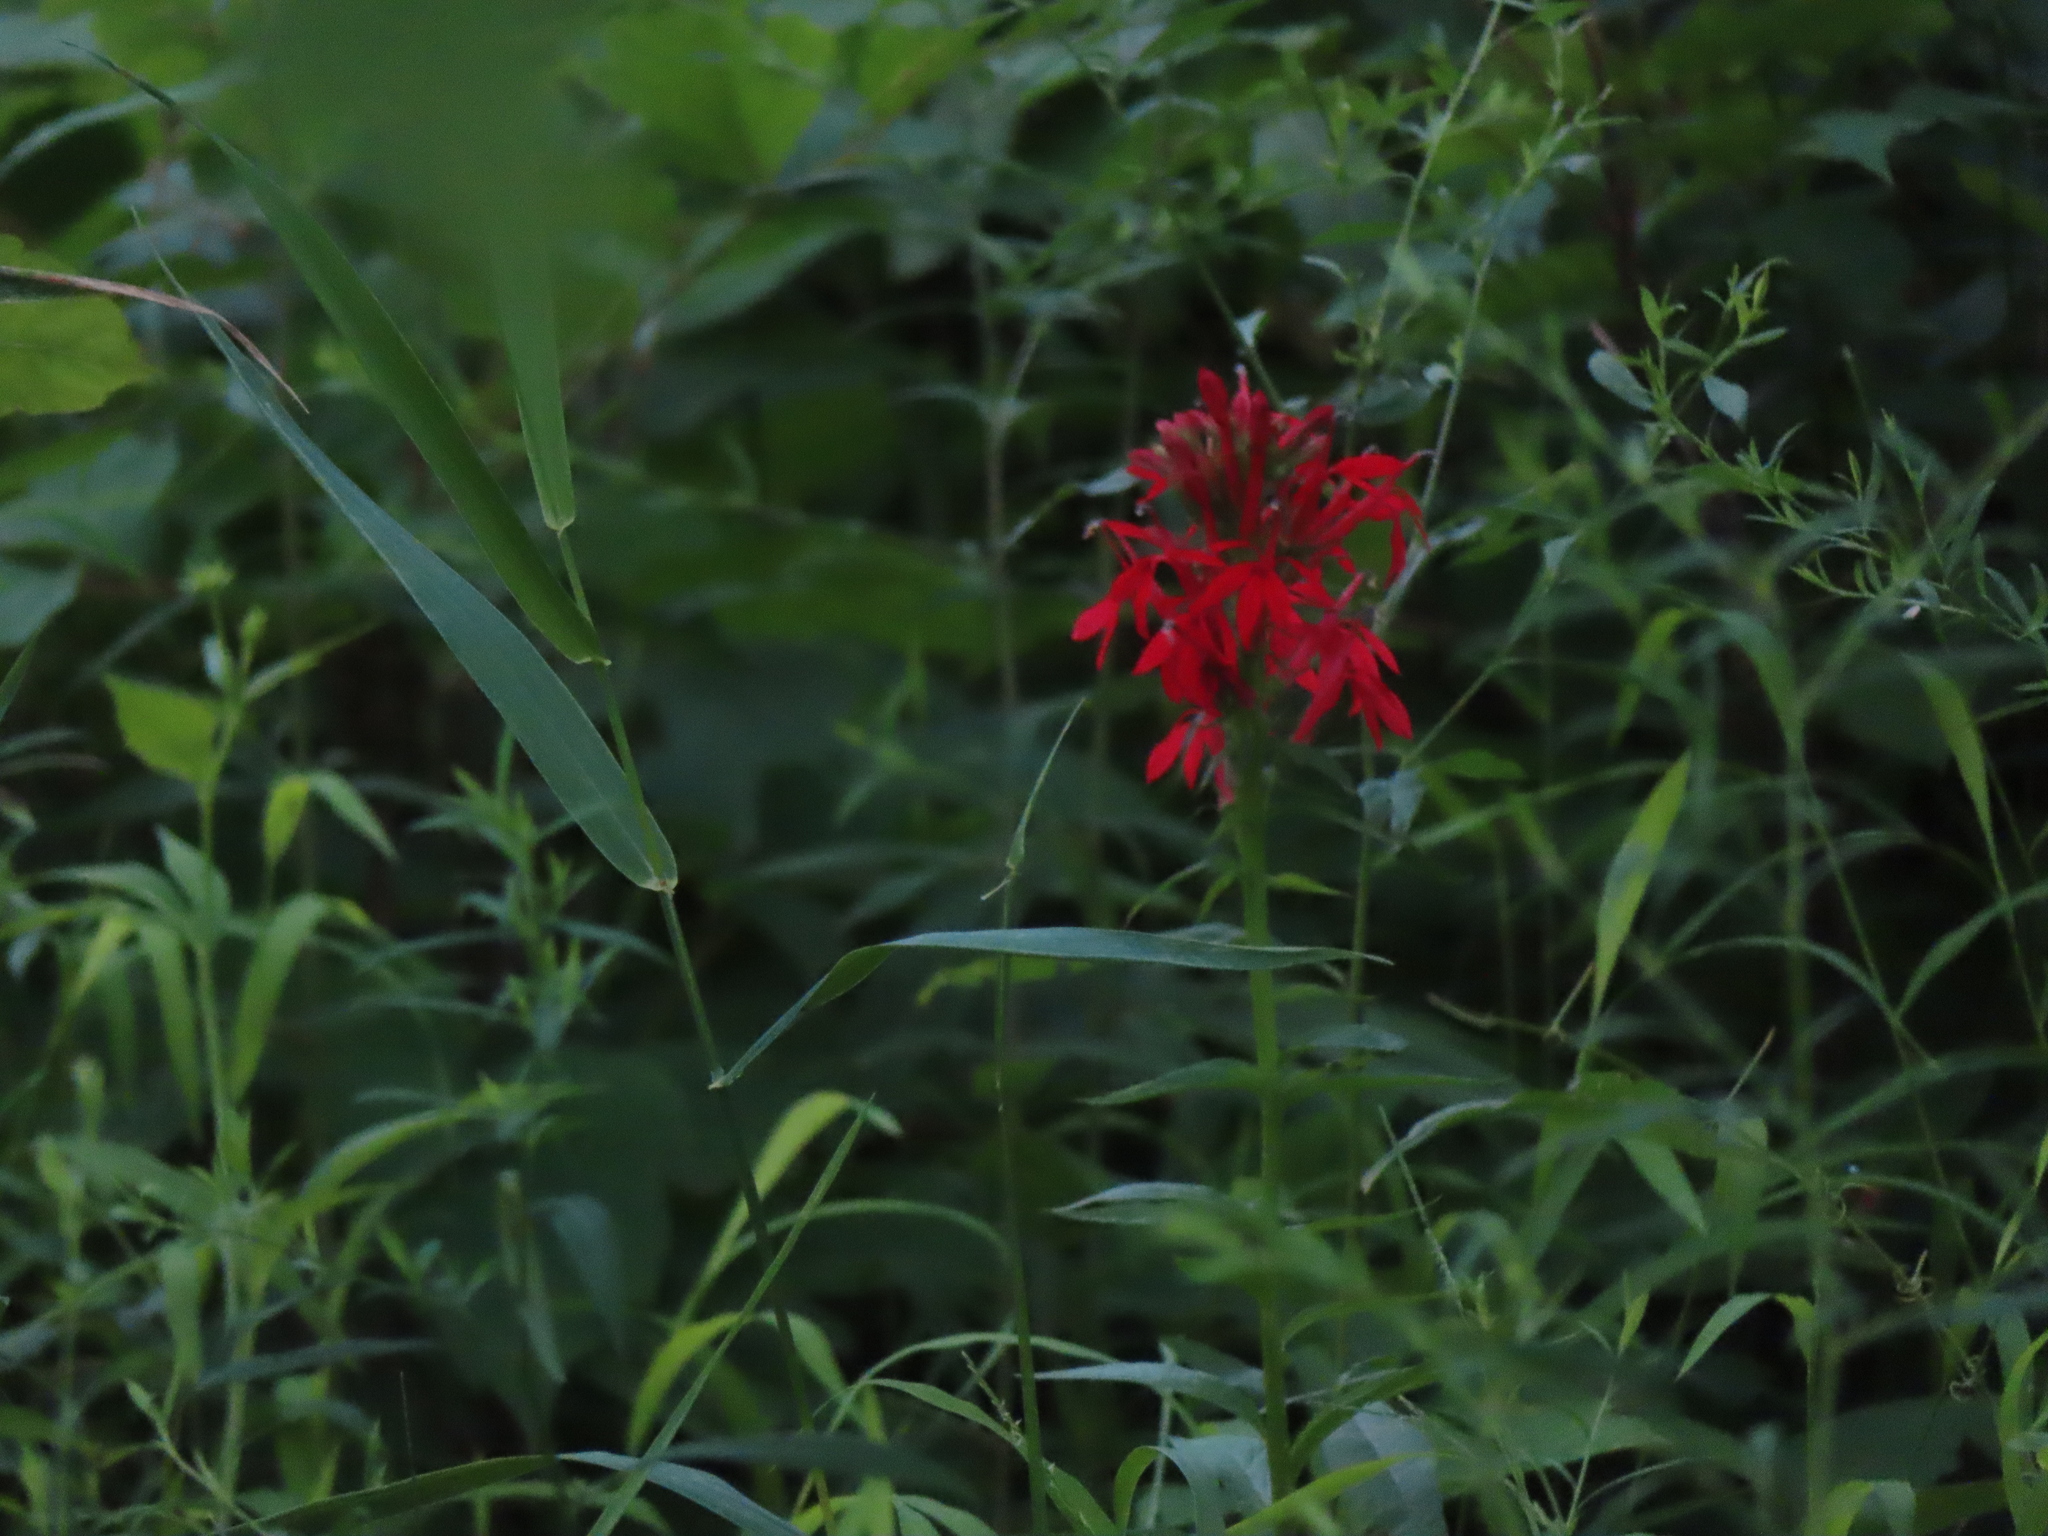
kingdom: Plantae
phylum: Tracheophyta
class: Magnoliopsida
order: Asterales
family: Campanulaceae
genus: Lobelia
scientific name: Lobelia cardinalis
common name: Cardinal flower
